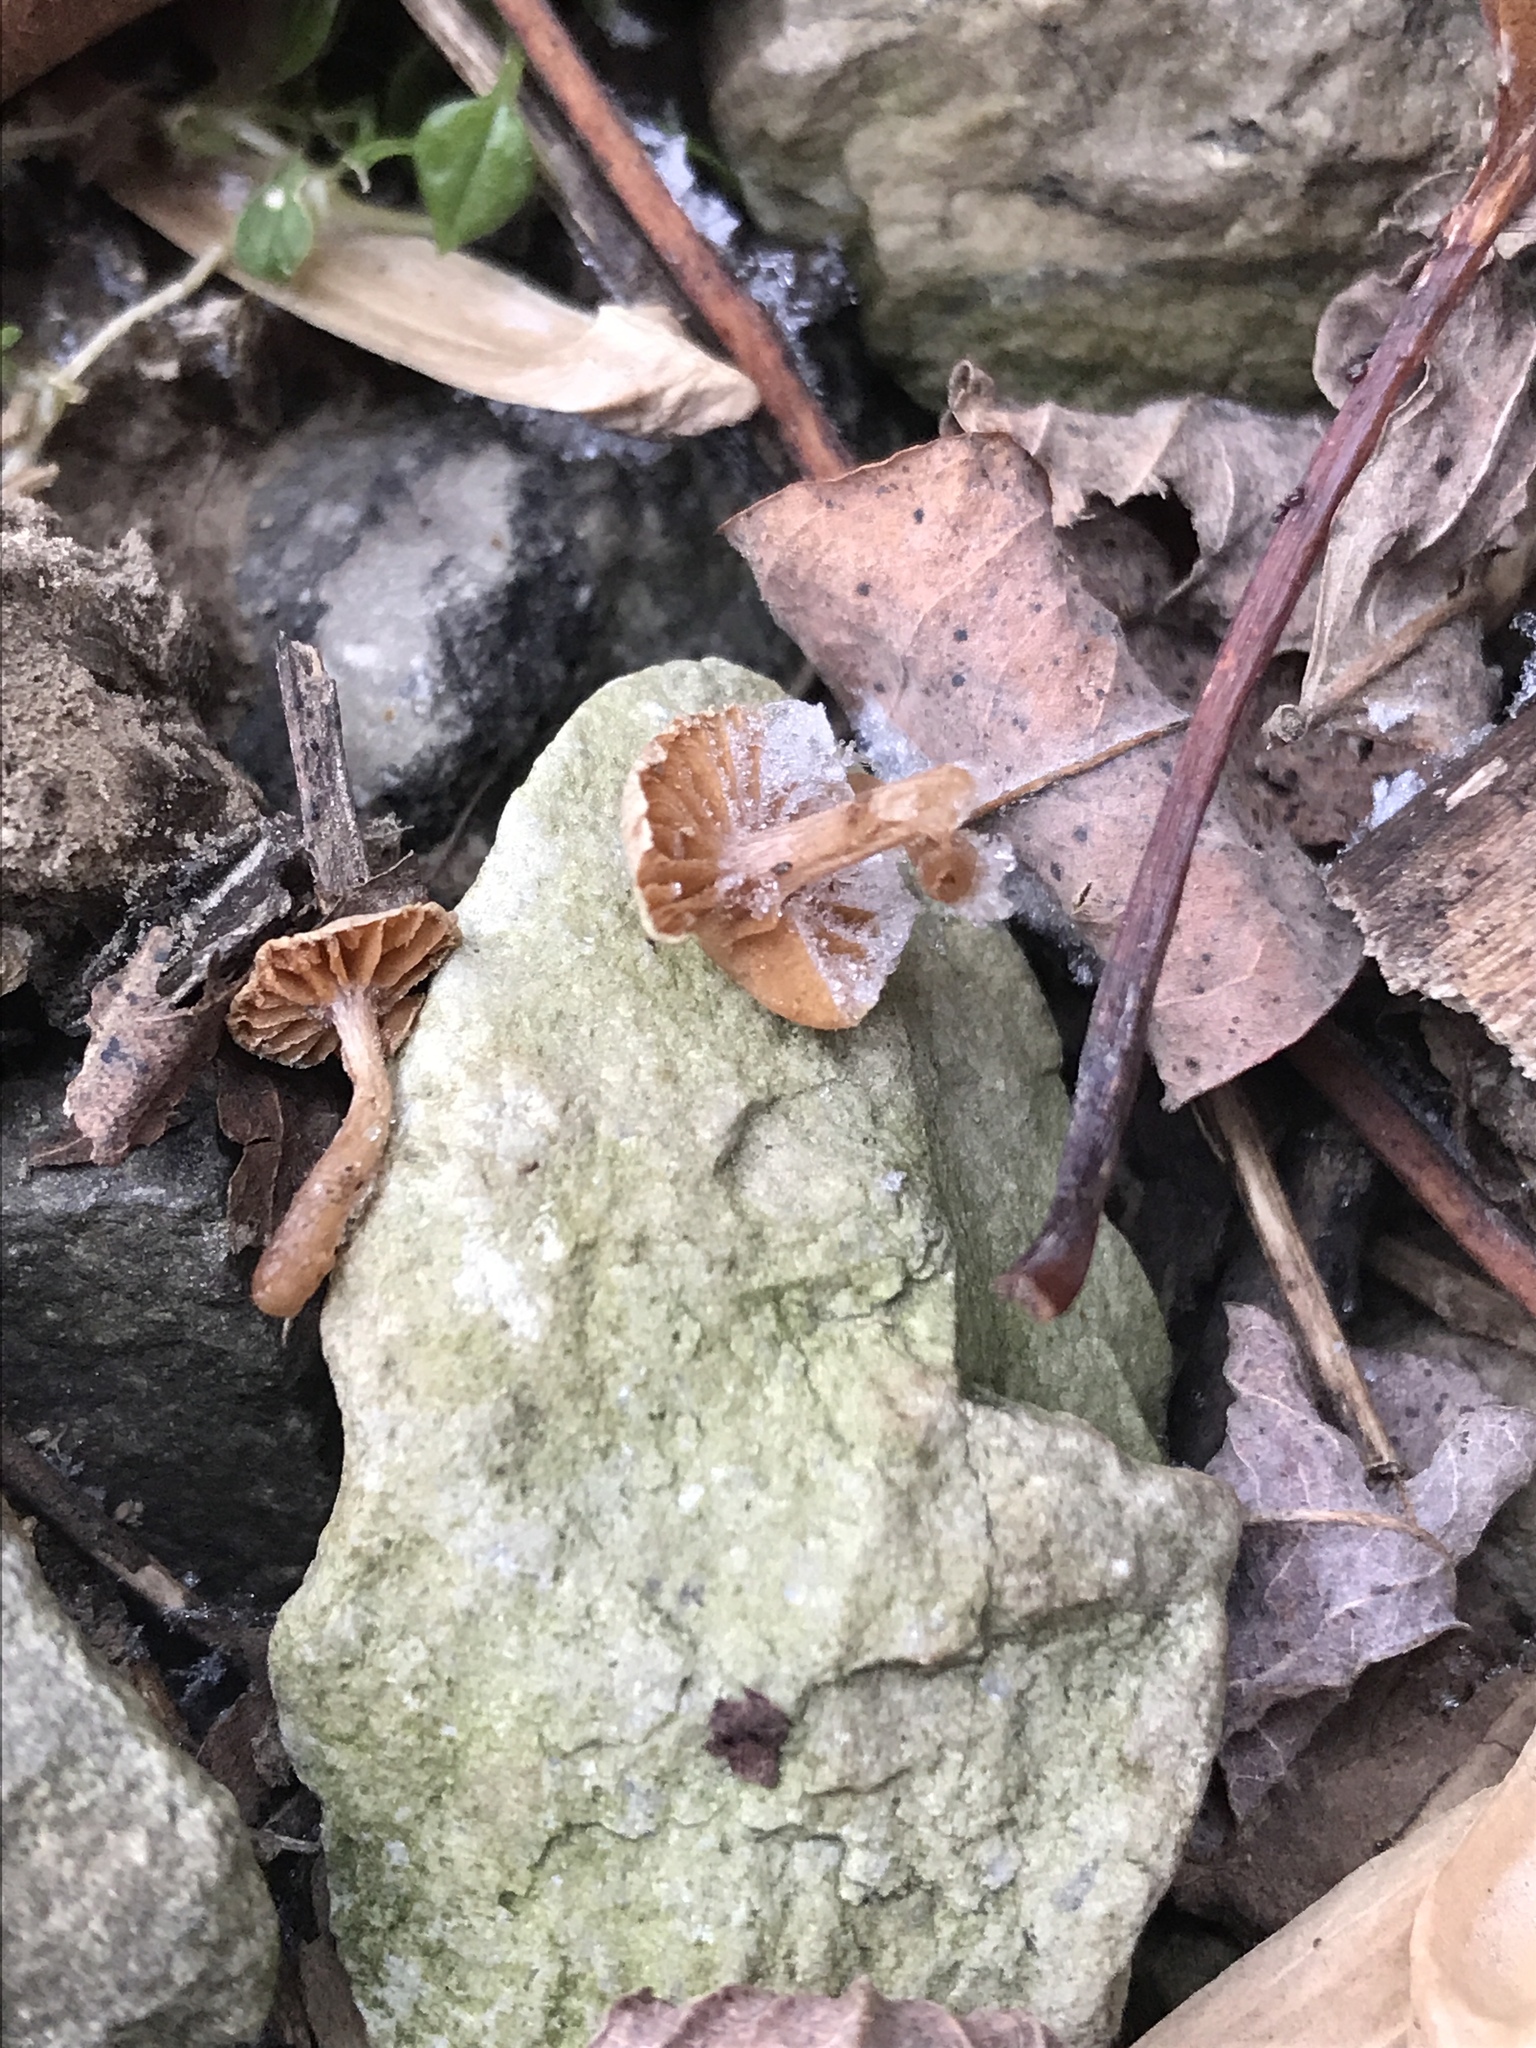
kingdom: Fungi
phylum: Basidiomycota
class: Agaricomycetes
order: Agaricales
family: Tubariaceae
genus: Tubaria
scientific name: Tubaria furfuracea
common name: Scurfy twiglet
